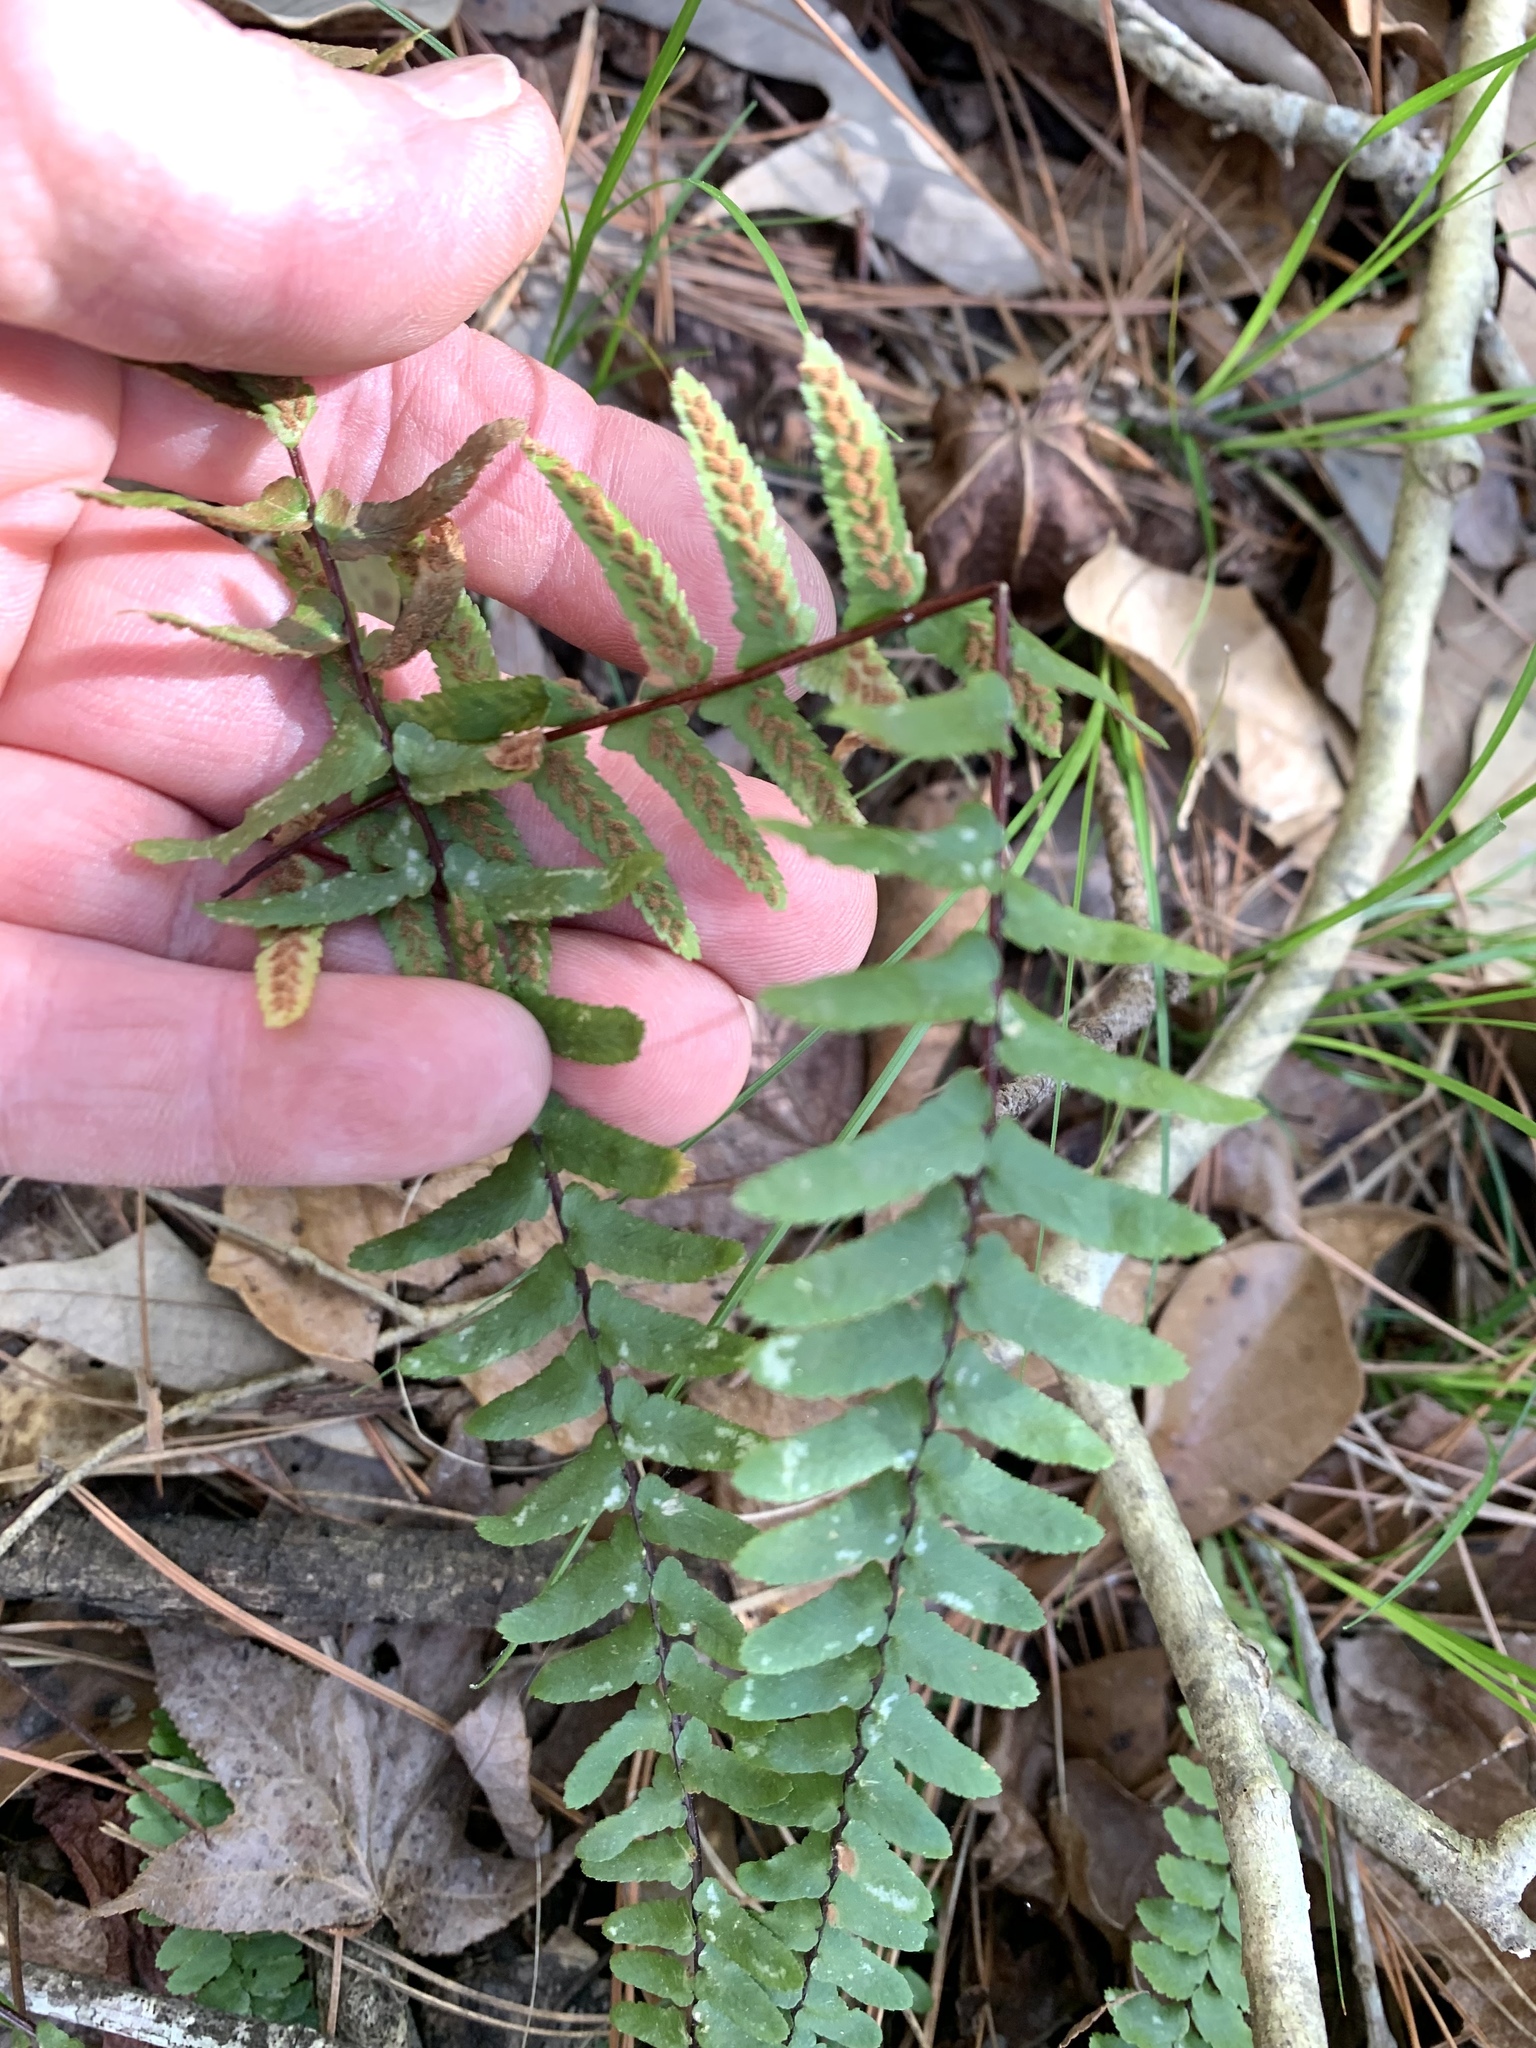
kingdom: Plantae
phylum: Tracheophyta
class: Polypodiopsida
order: Polypodiales
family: Aspleniaceae
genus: Asplenium
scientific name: Asplenium platyneuron
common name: Ebony spleenwort
